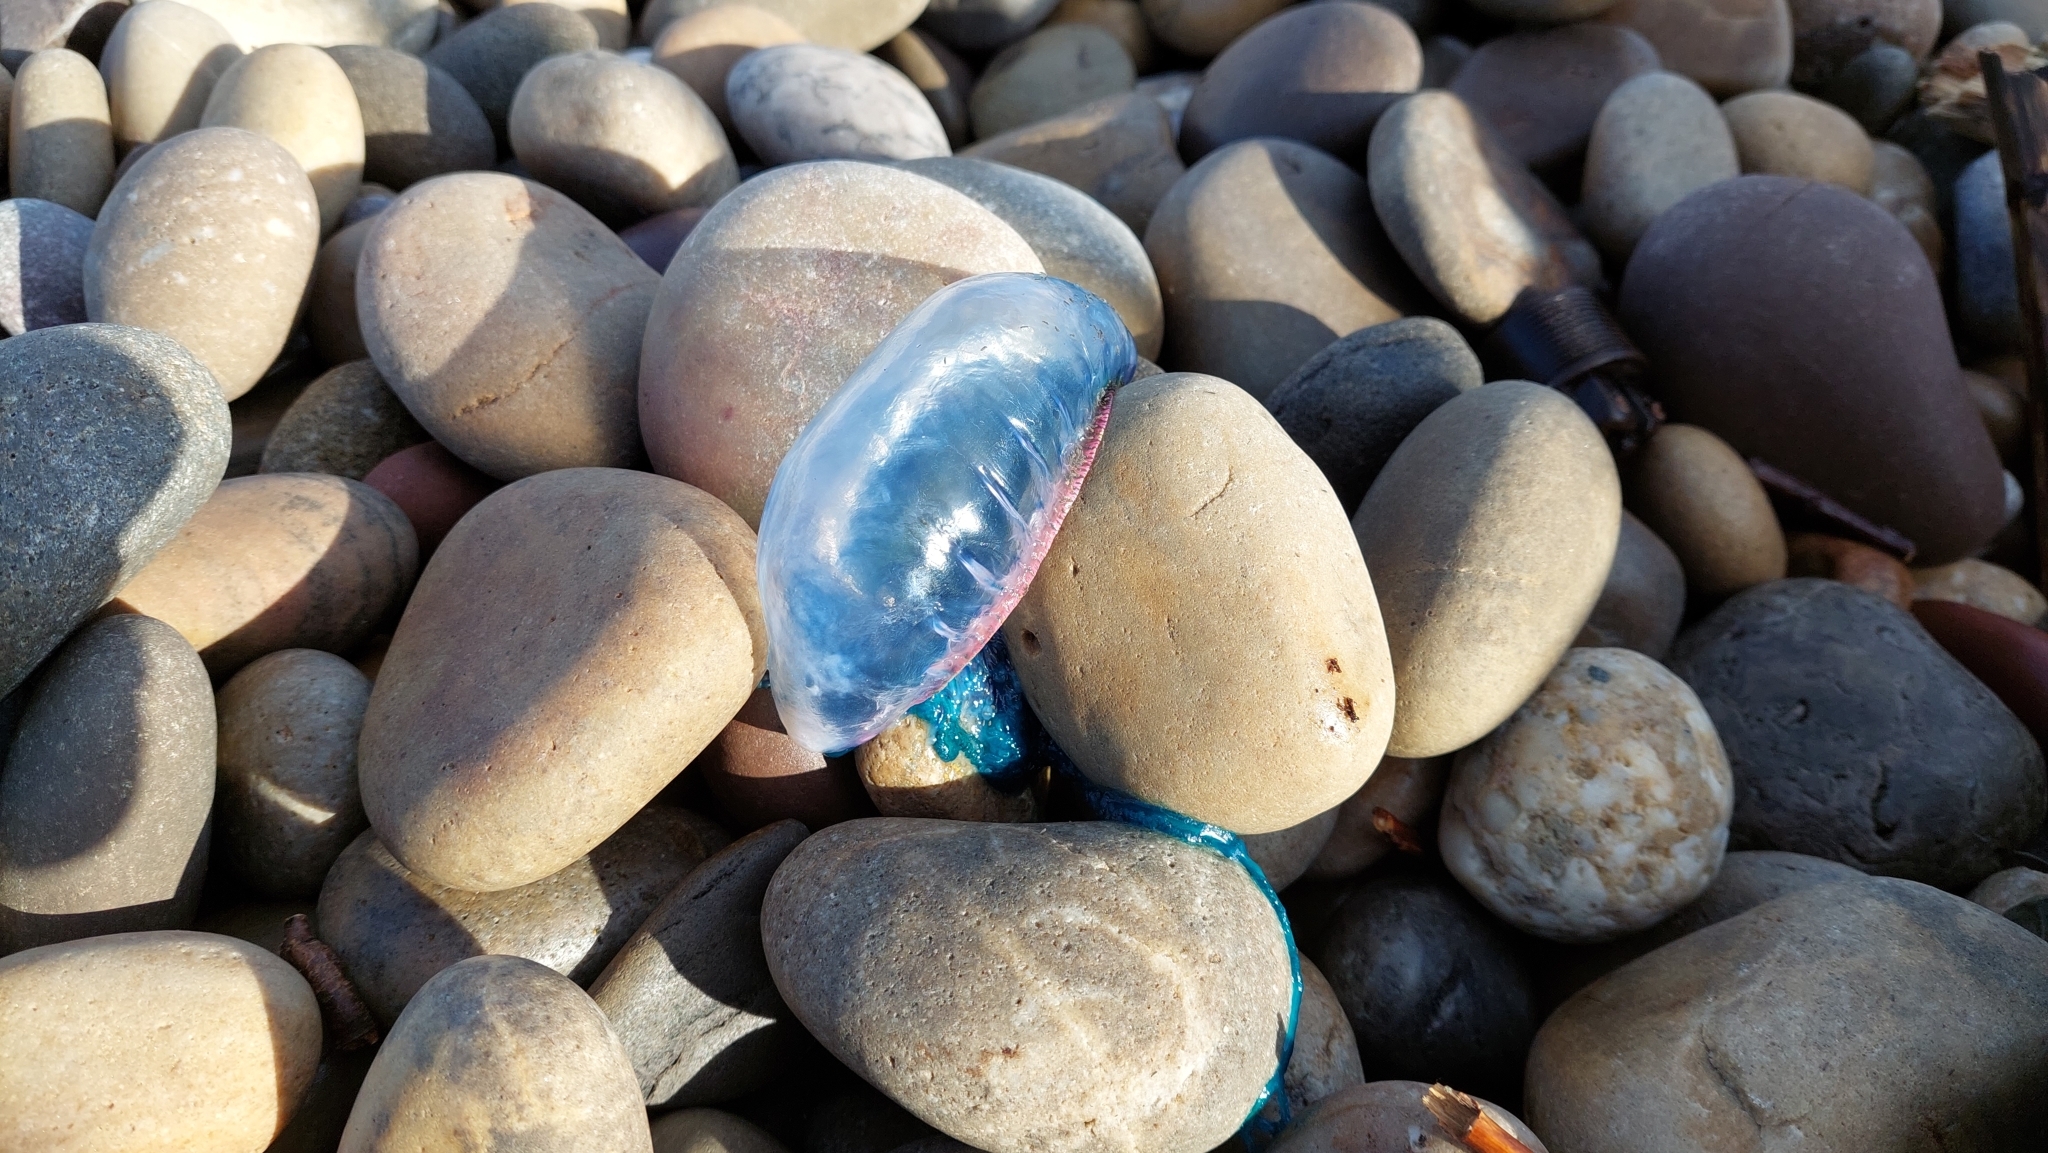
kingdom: Animalia
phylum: Cnidaria
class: Hydrozoa
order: Siphonophorae
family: Physaliidae
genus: Physalia
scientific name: Physalia physalis
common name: Portuguese man-of-war
